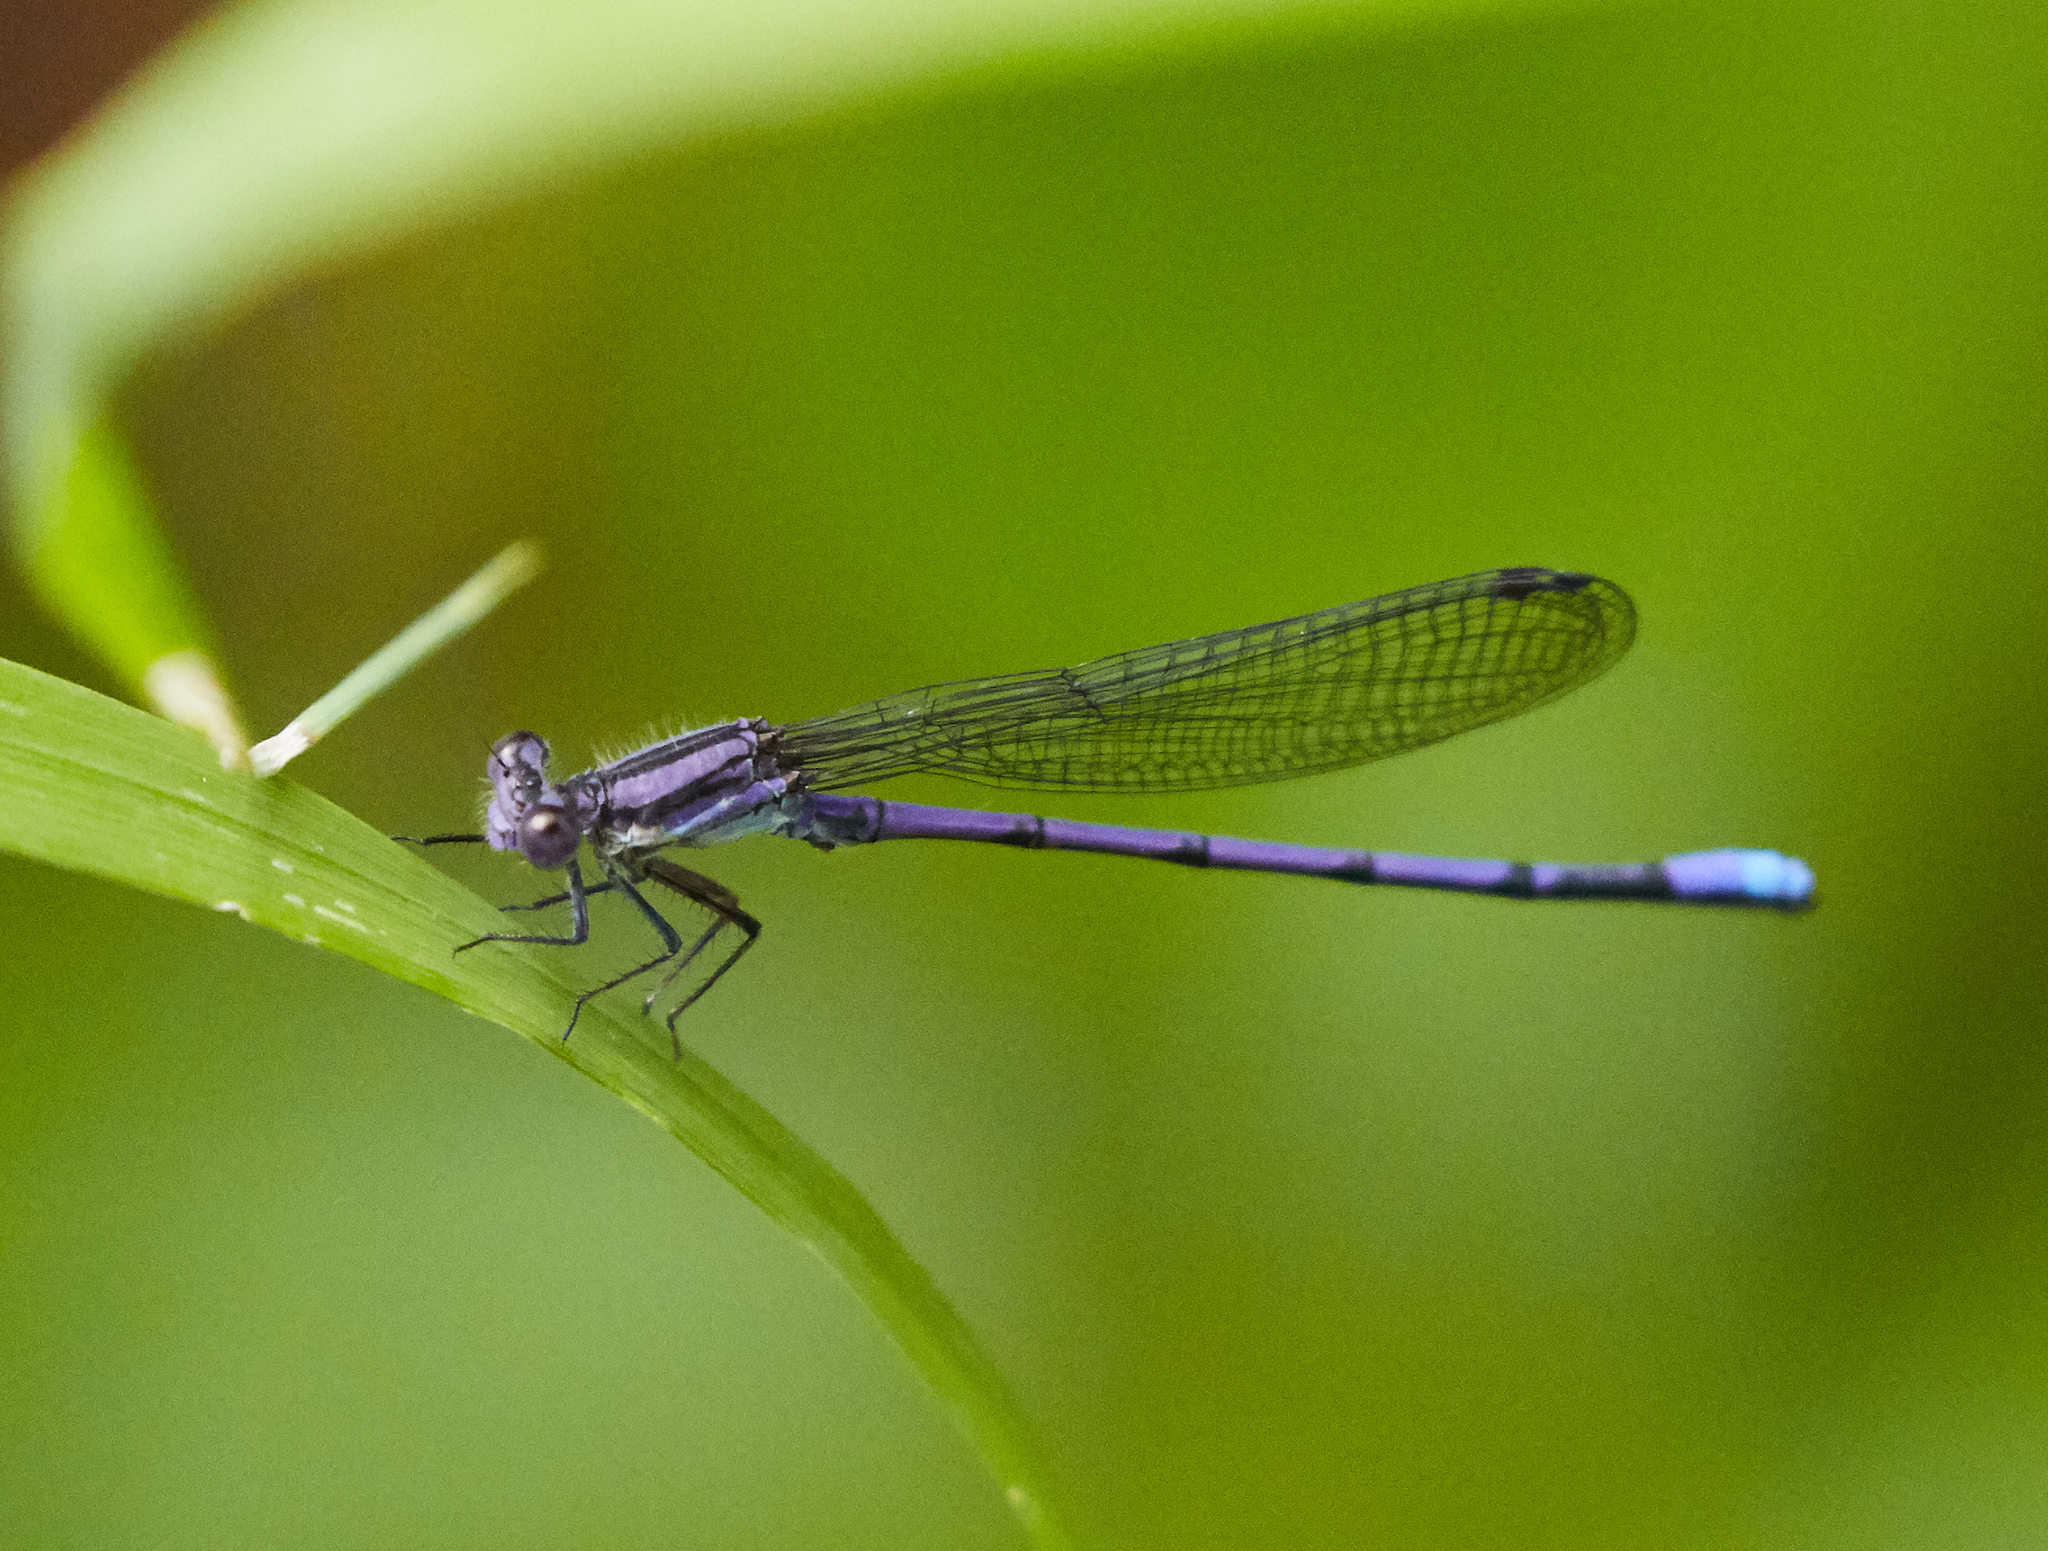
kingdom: Animalia
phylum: Arthropoda
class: Insecta
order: Odonata
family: Coenagrionidae
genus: Argia
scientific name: Argia fumipennis
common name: Variable dancer
